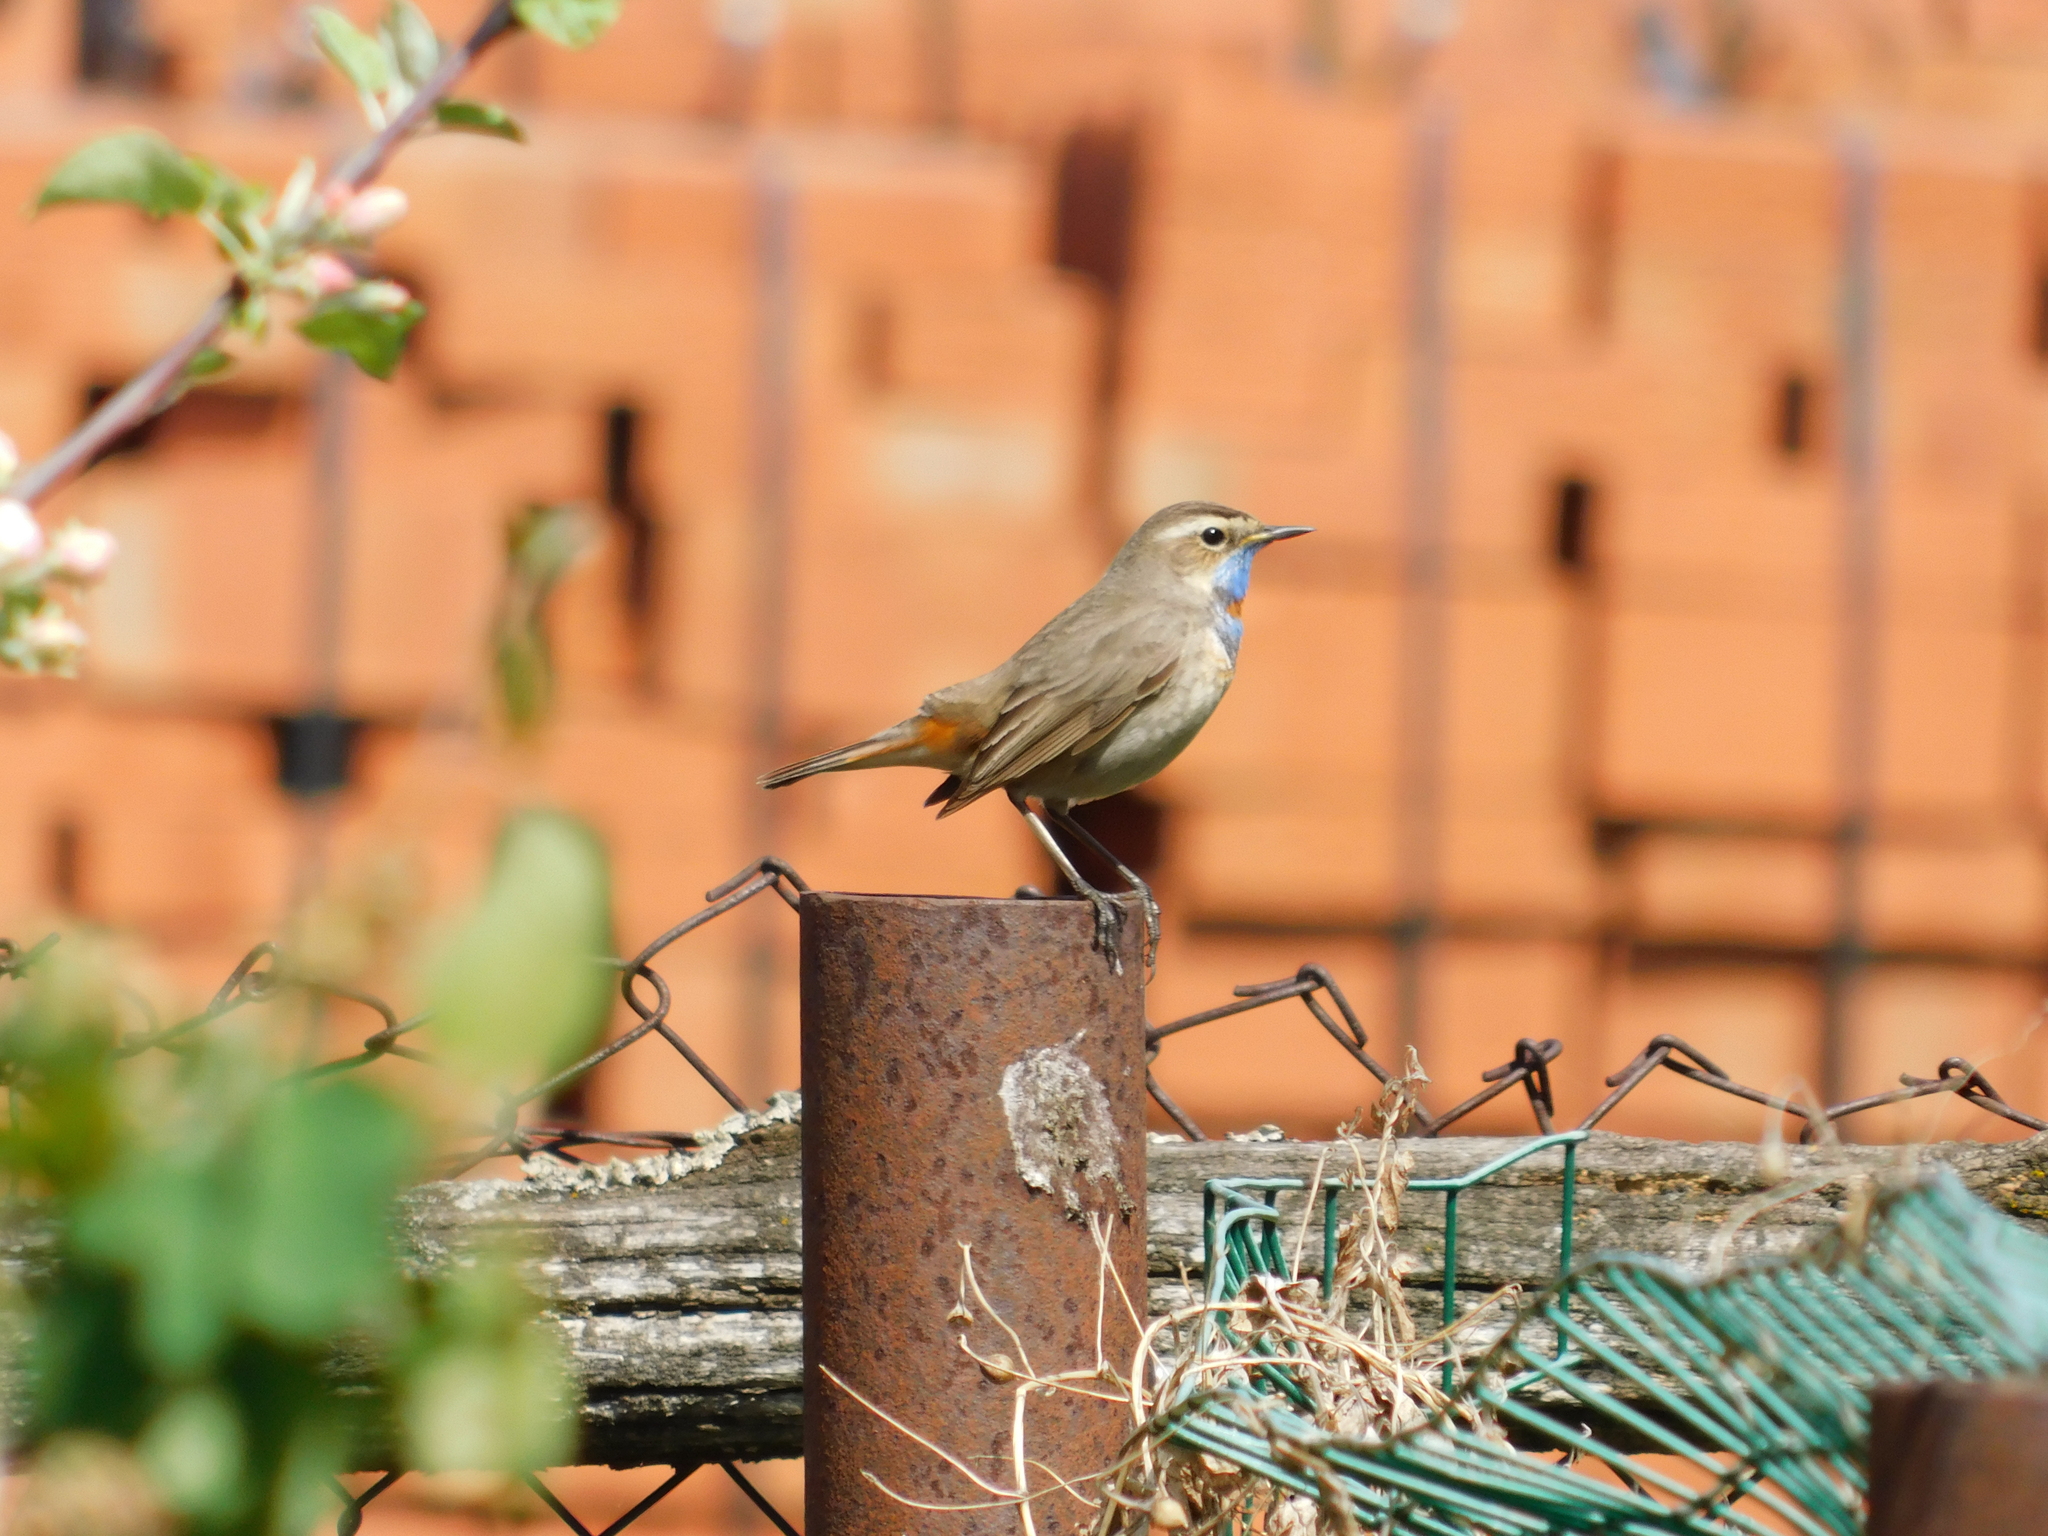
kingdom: Animalia
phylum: Chordata
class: Aves
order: Passeriformes
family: Muscicapidae
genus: Luscinia
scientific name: Luscinia svecica
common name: Bluethroat
